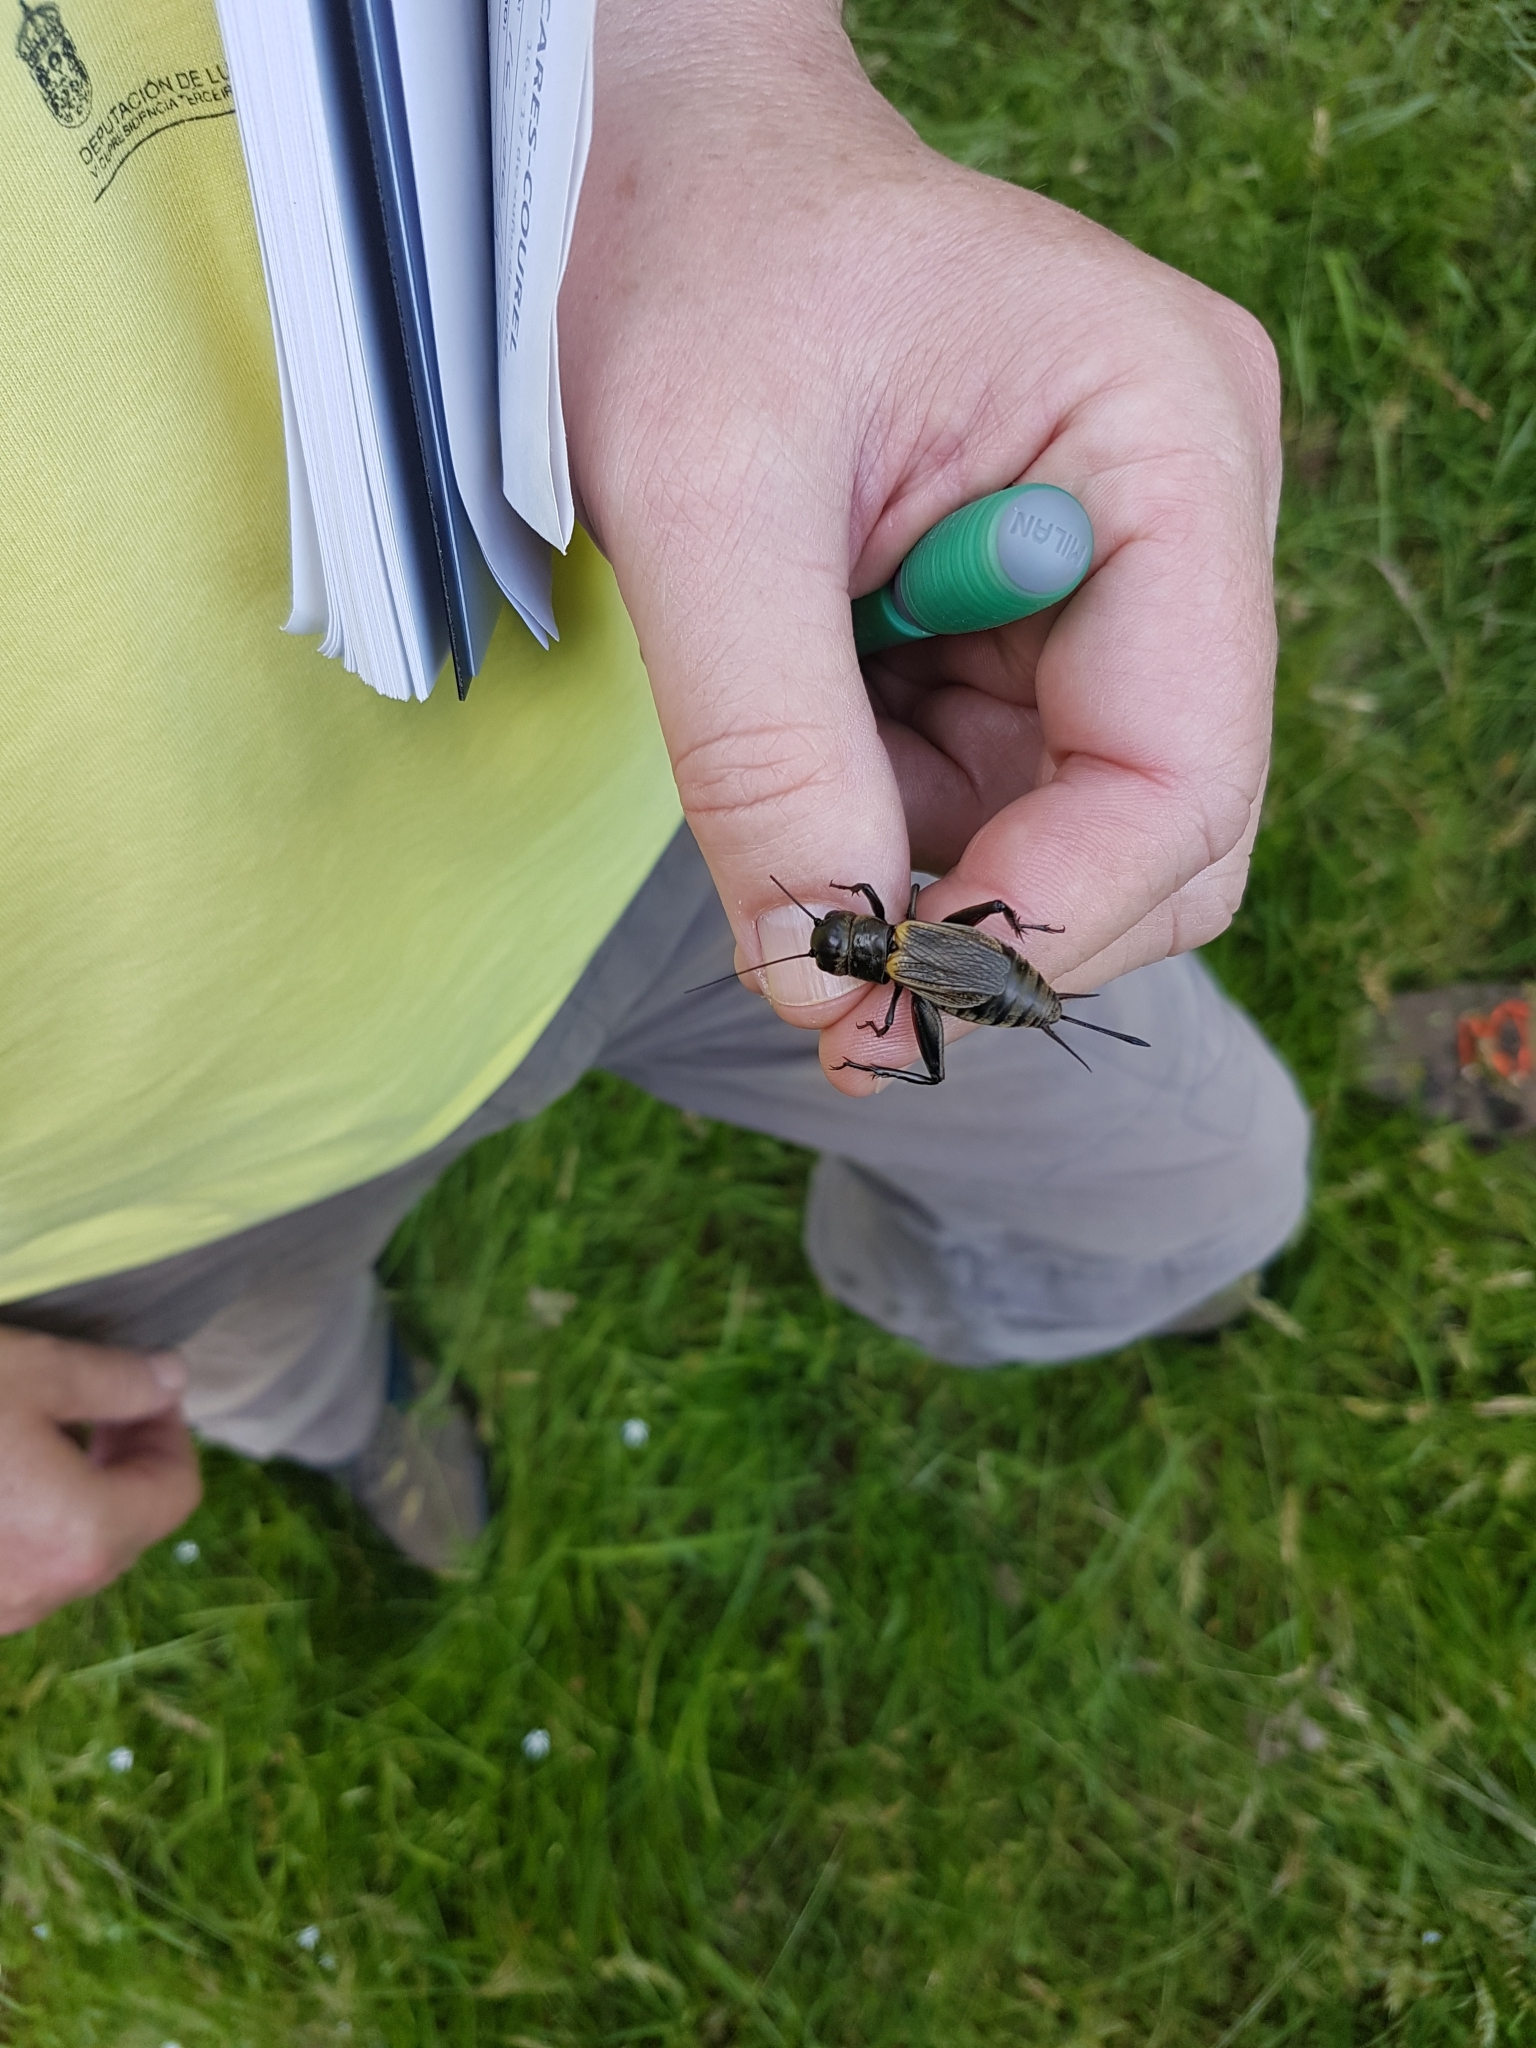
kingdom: Animalia
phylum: Arthropoda
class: Insecta
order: Orthoptera
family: Gryllidae
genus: Gryllus
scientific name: Gryllus campestris
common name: Field cricket
